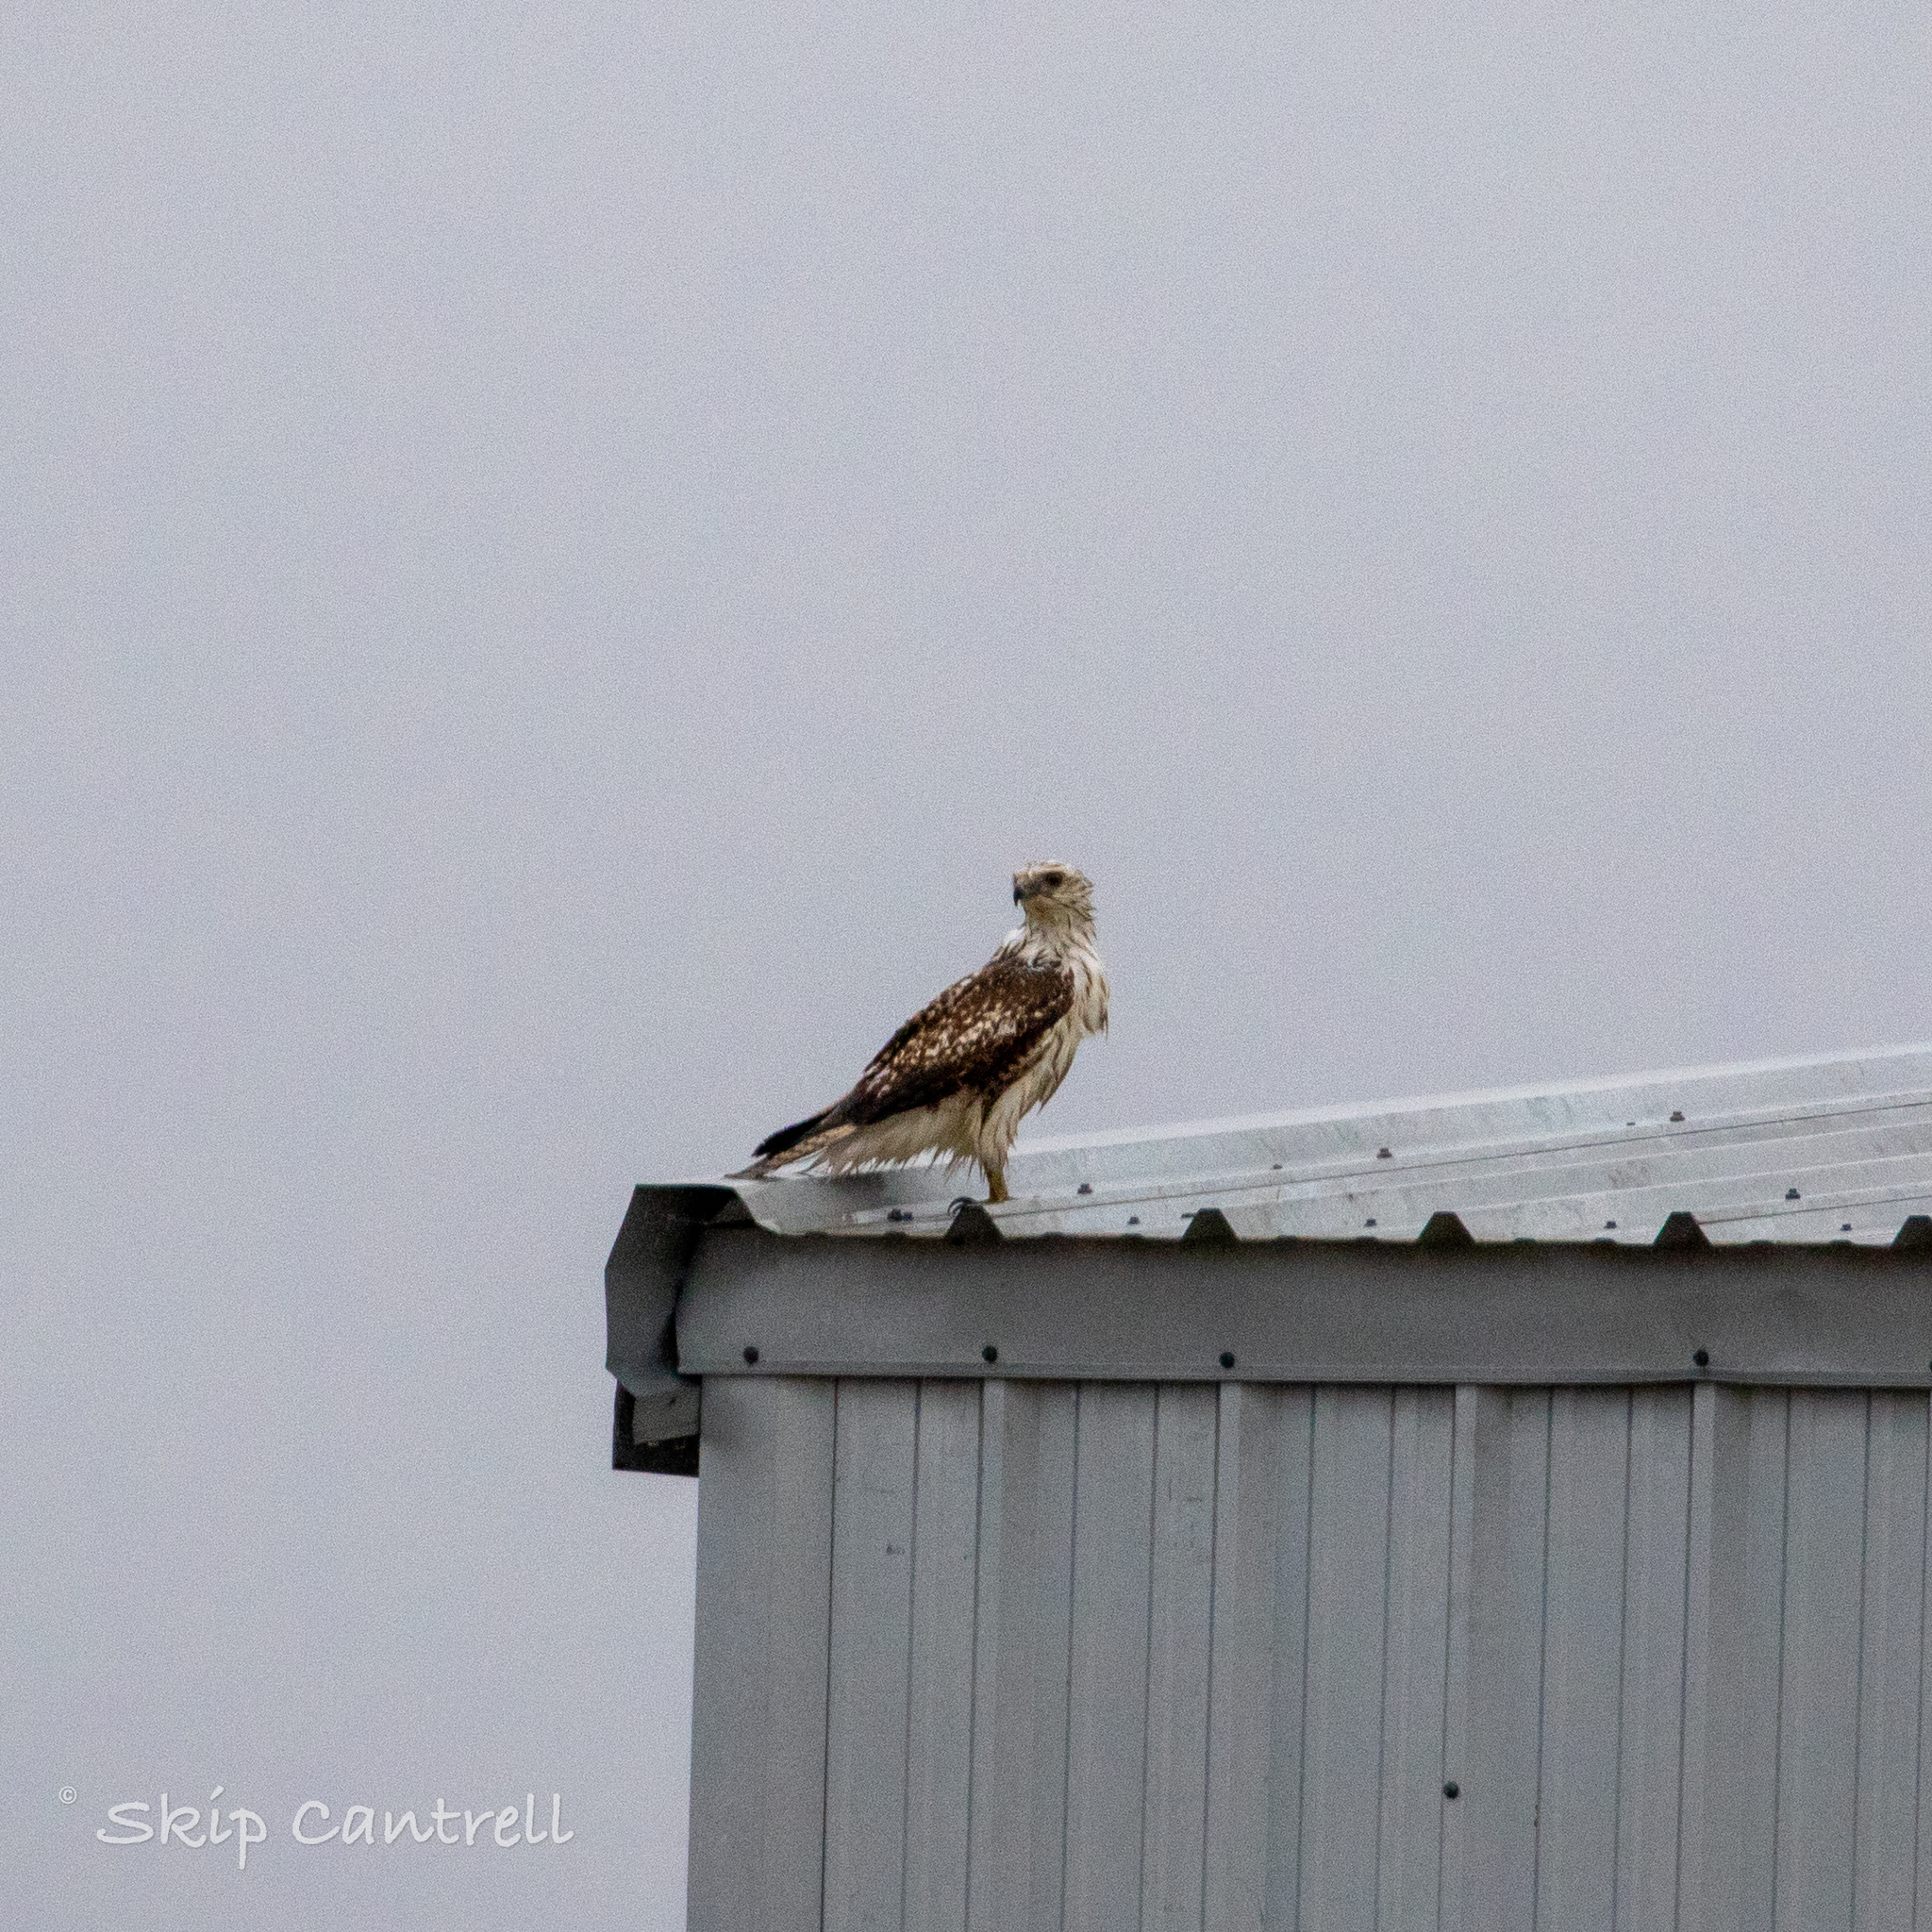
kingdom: Animalia
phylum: Chordata
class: Aves
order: Accipitriformes
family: Accipitridae
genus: Buteo
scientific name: Buteo jamaicensis
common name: Red-tailed hawk
